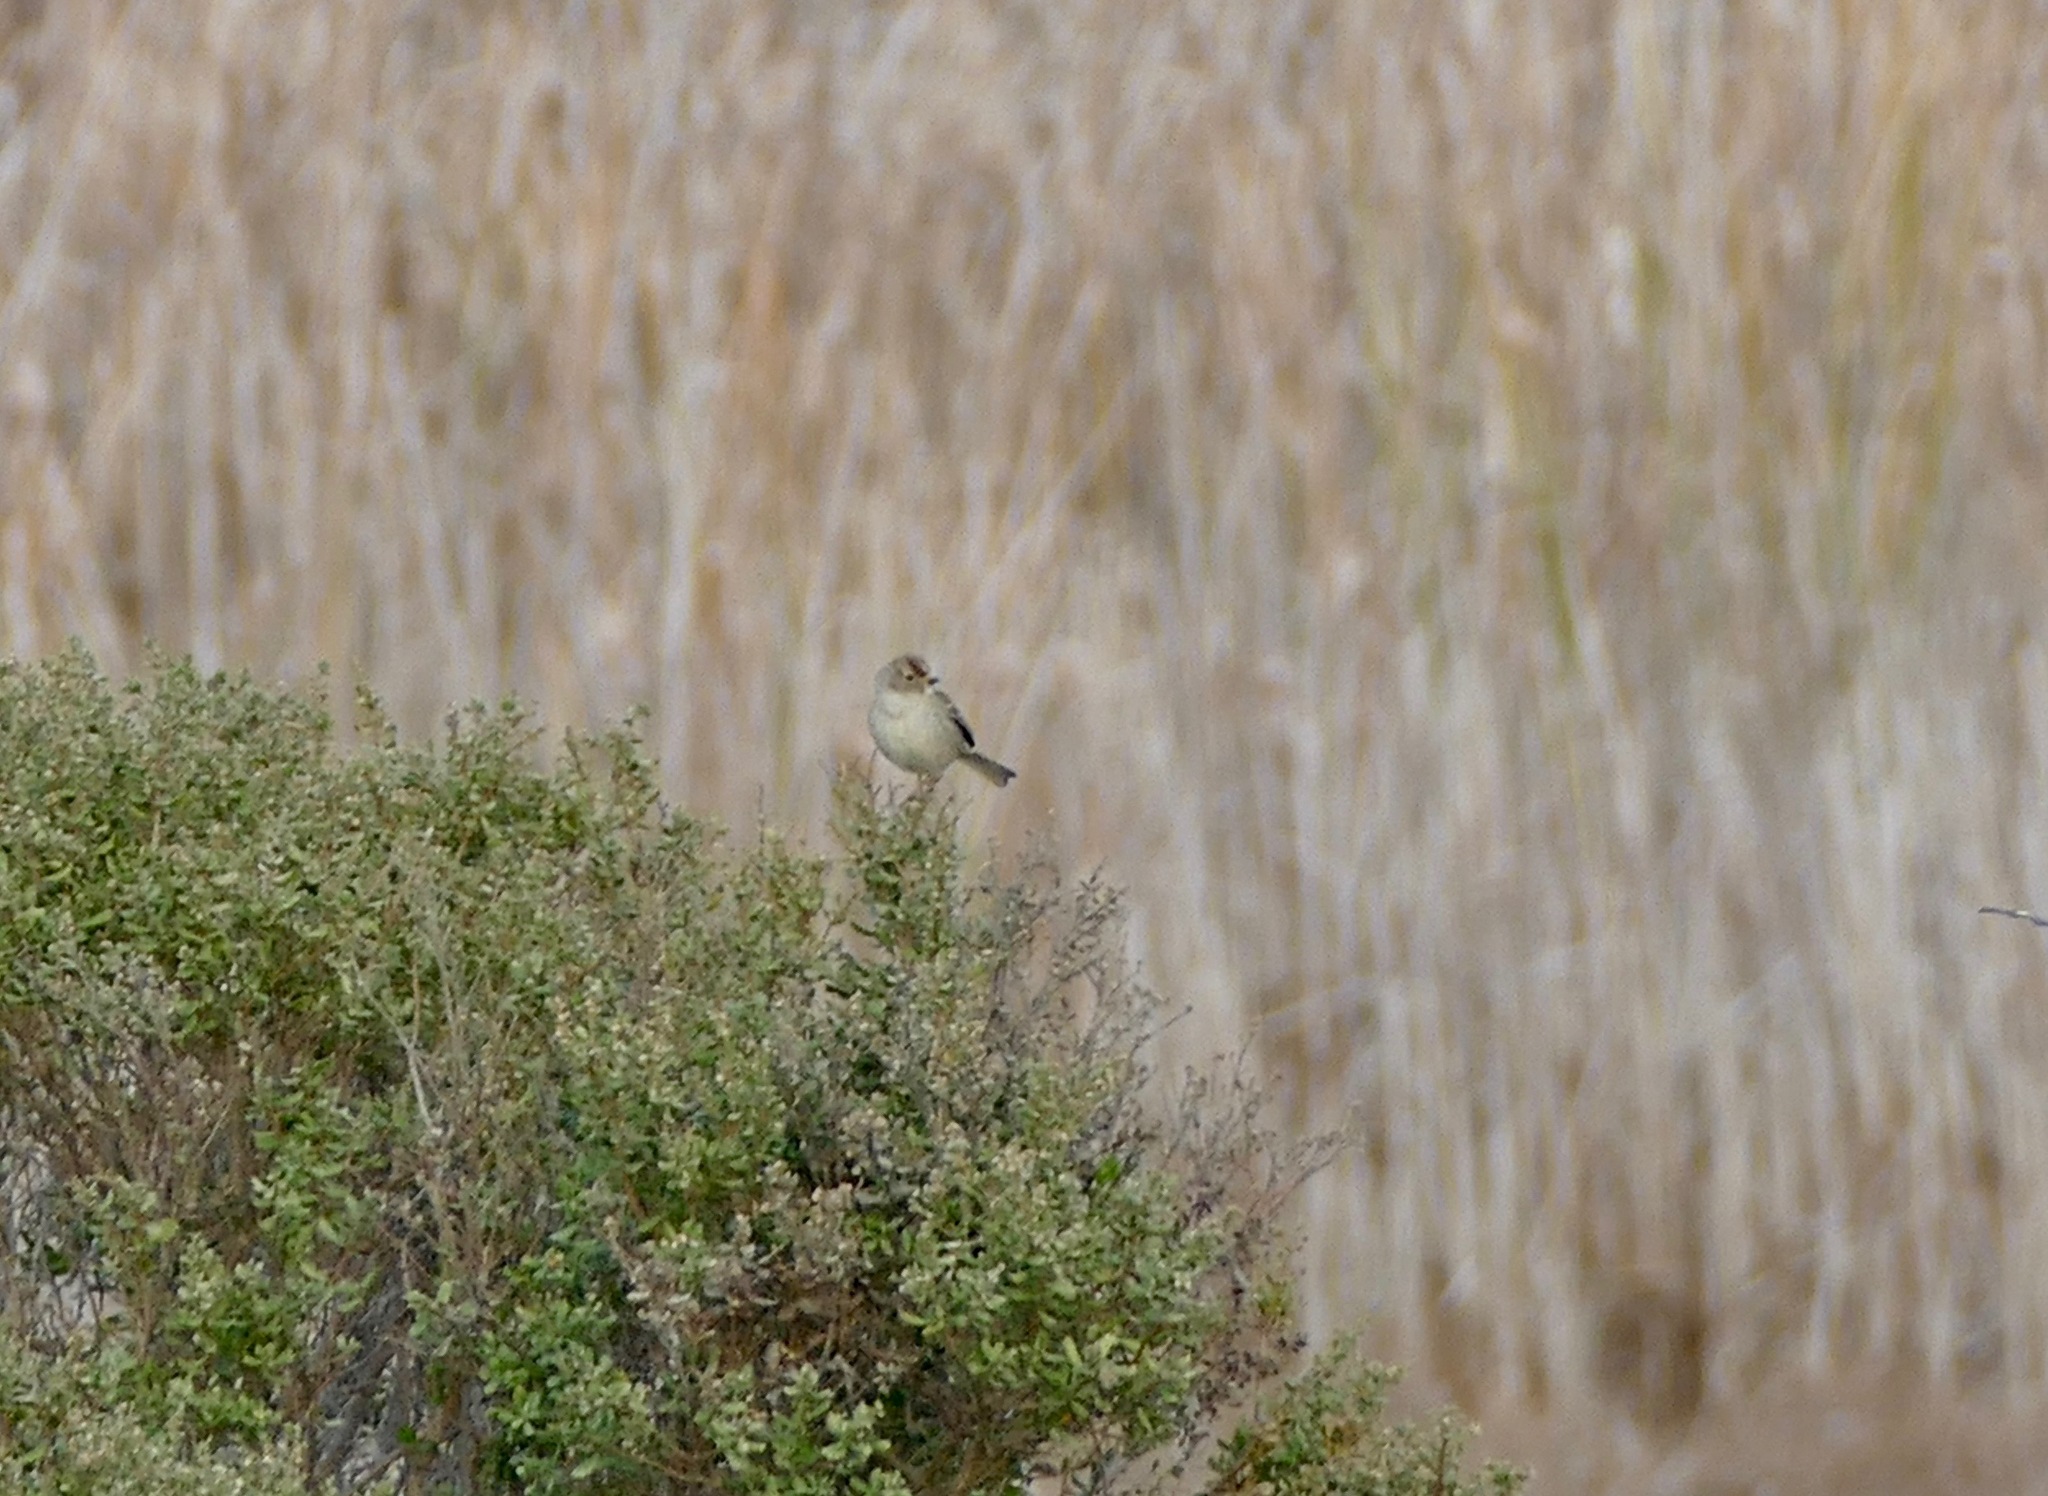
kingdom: Animalia
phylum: Chordata
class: Aves
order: Passeriformes
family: Passerellidae
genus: Zonotrichia
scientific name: Zonotrichia leucophrys
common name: White-crowned sparrow
